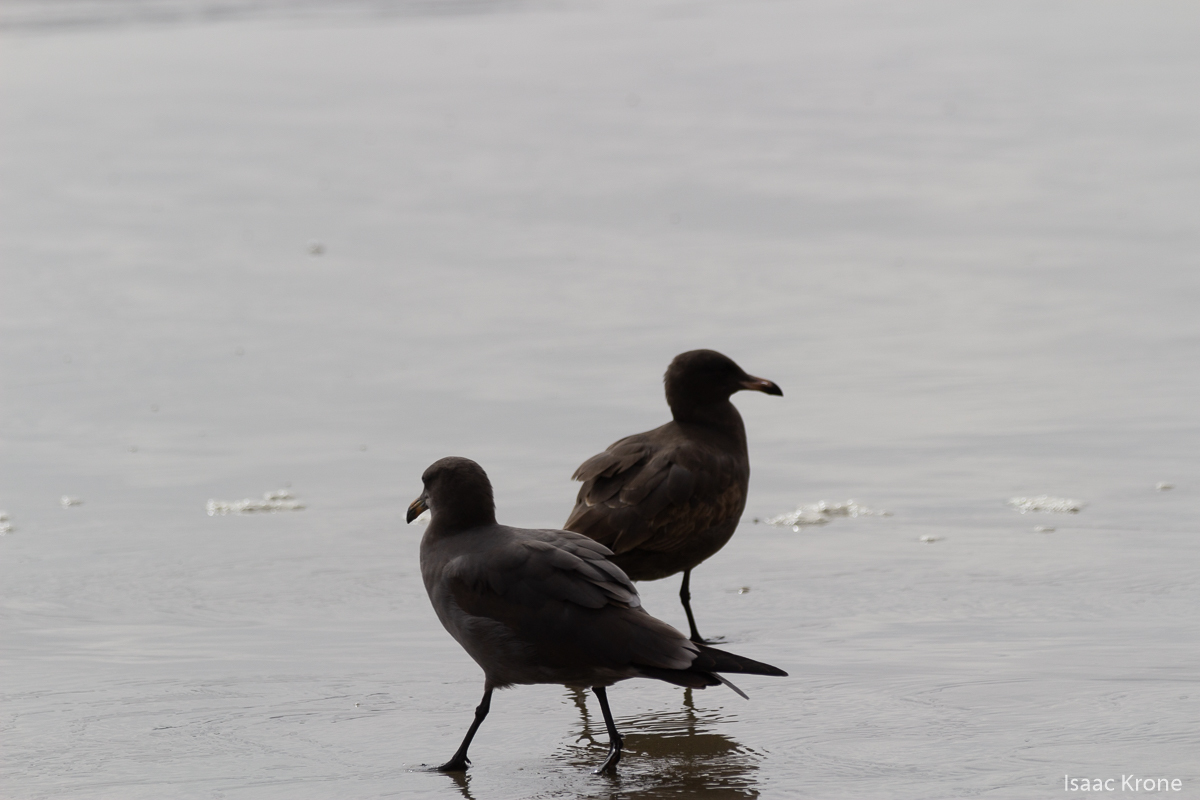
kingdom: Animalia
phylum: Chordata
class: Aves
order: Charadriiformes
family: Laridae
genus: Larus
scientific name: Larus heermanni
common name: Heermann's gull
